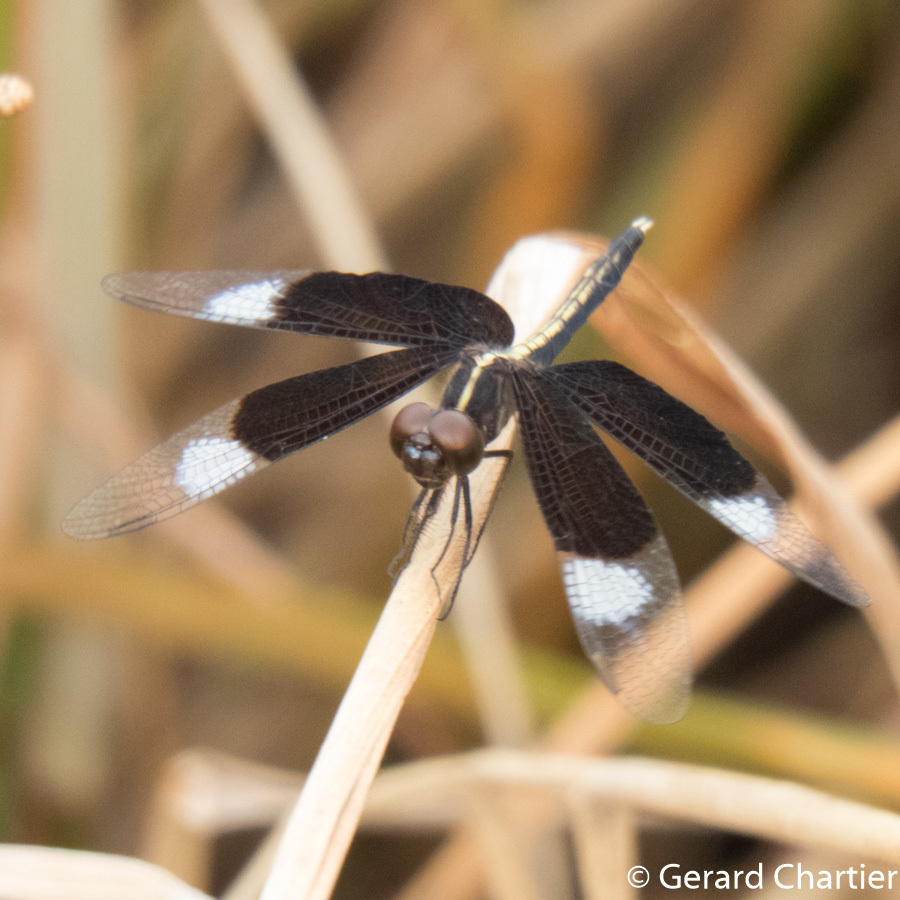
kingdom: Animalia
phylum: Arthropoda
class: Insecta
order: Odonata
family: Libellulidae
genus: Neurothemis
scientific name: Neurothemis tullia
